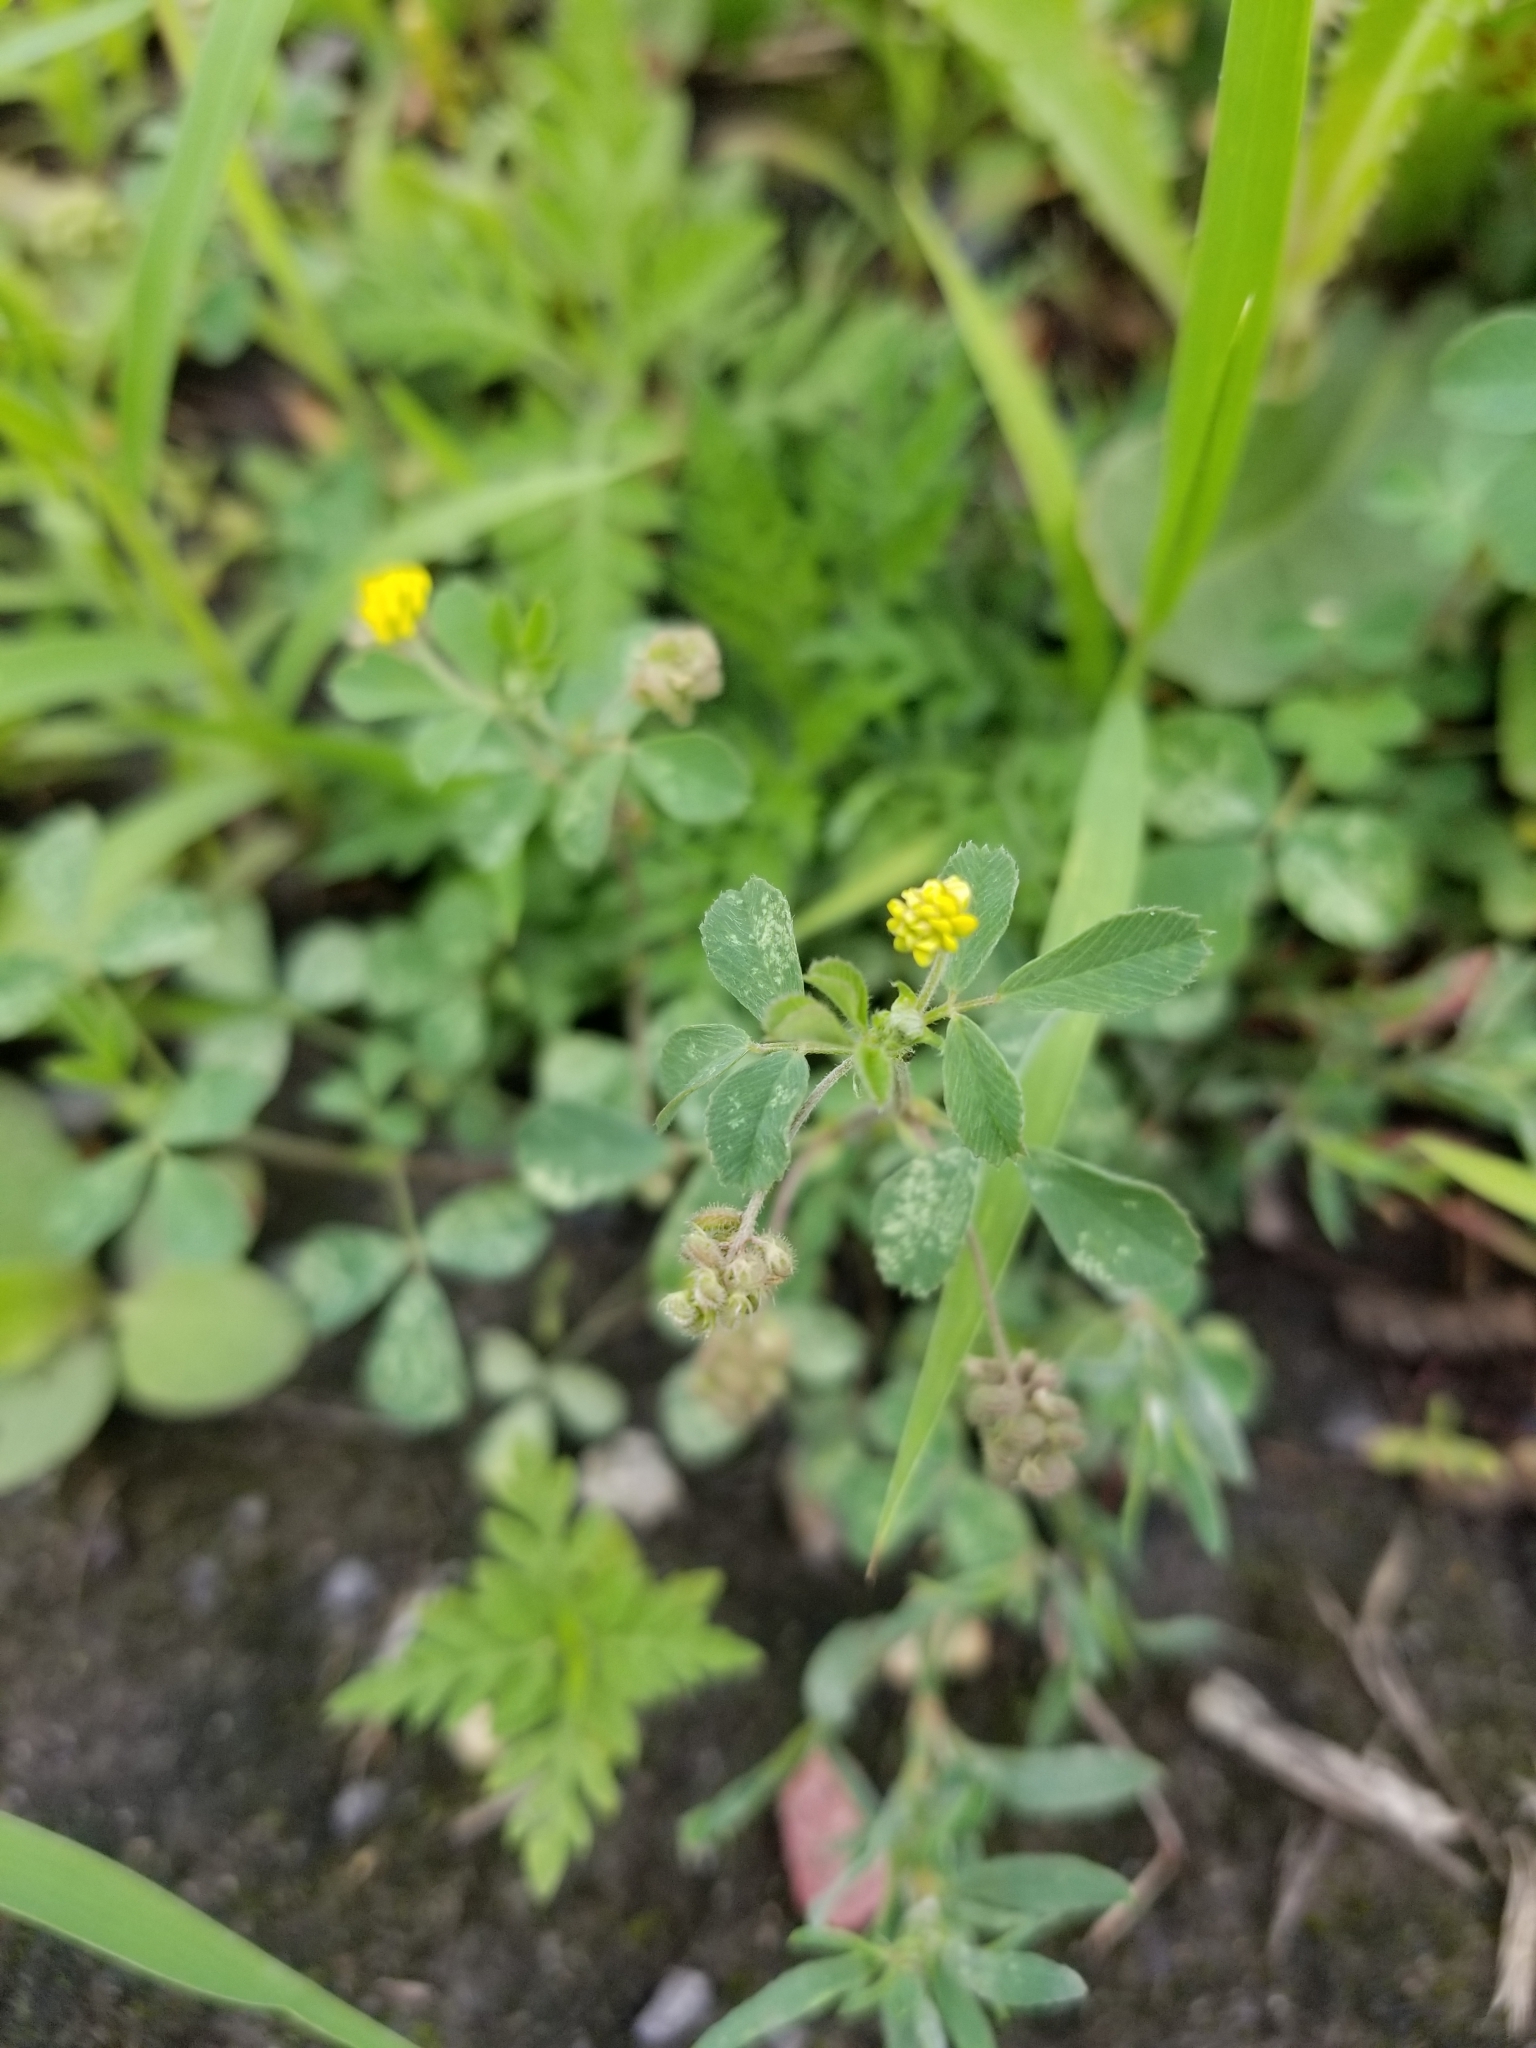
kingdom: Plantae
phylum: Tracheophyta
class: Magnoliopsida
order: Fabales
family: Fabaceae
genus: Medicago
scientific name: Medicago lupulina
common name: Black medick
